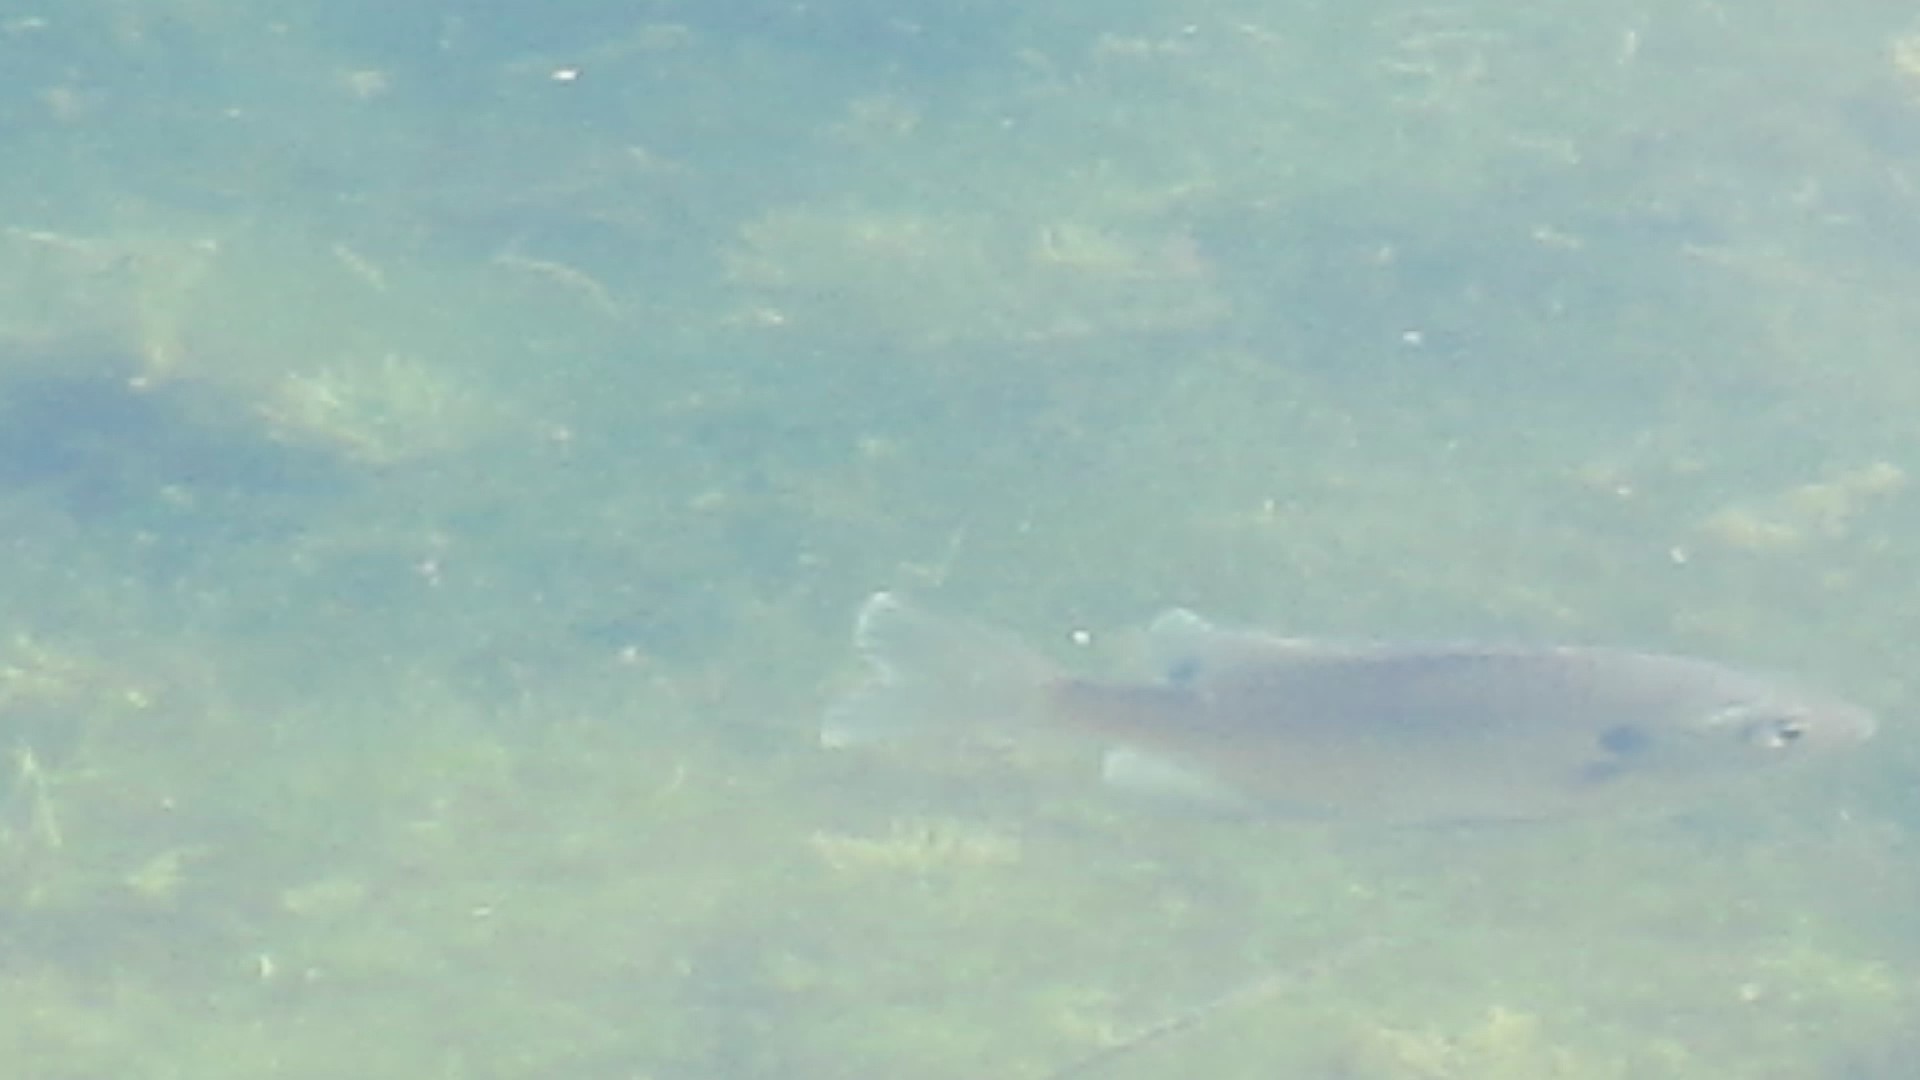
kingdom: Animalia
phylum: Chordata
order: Perciformes
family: Centrarchidae
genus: Lepomis
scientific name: Lepomis macrochirus
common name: Bluegill
